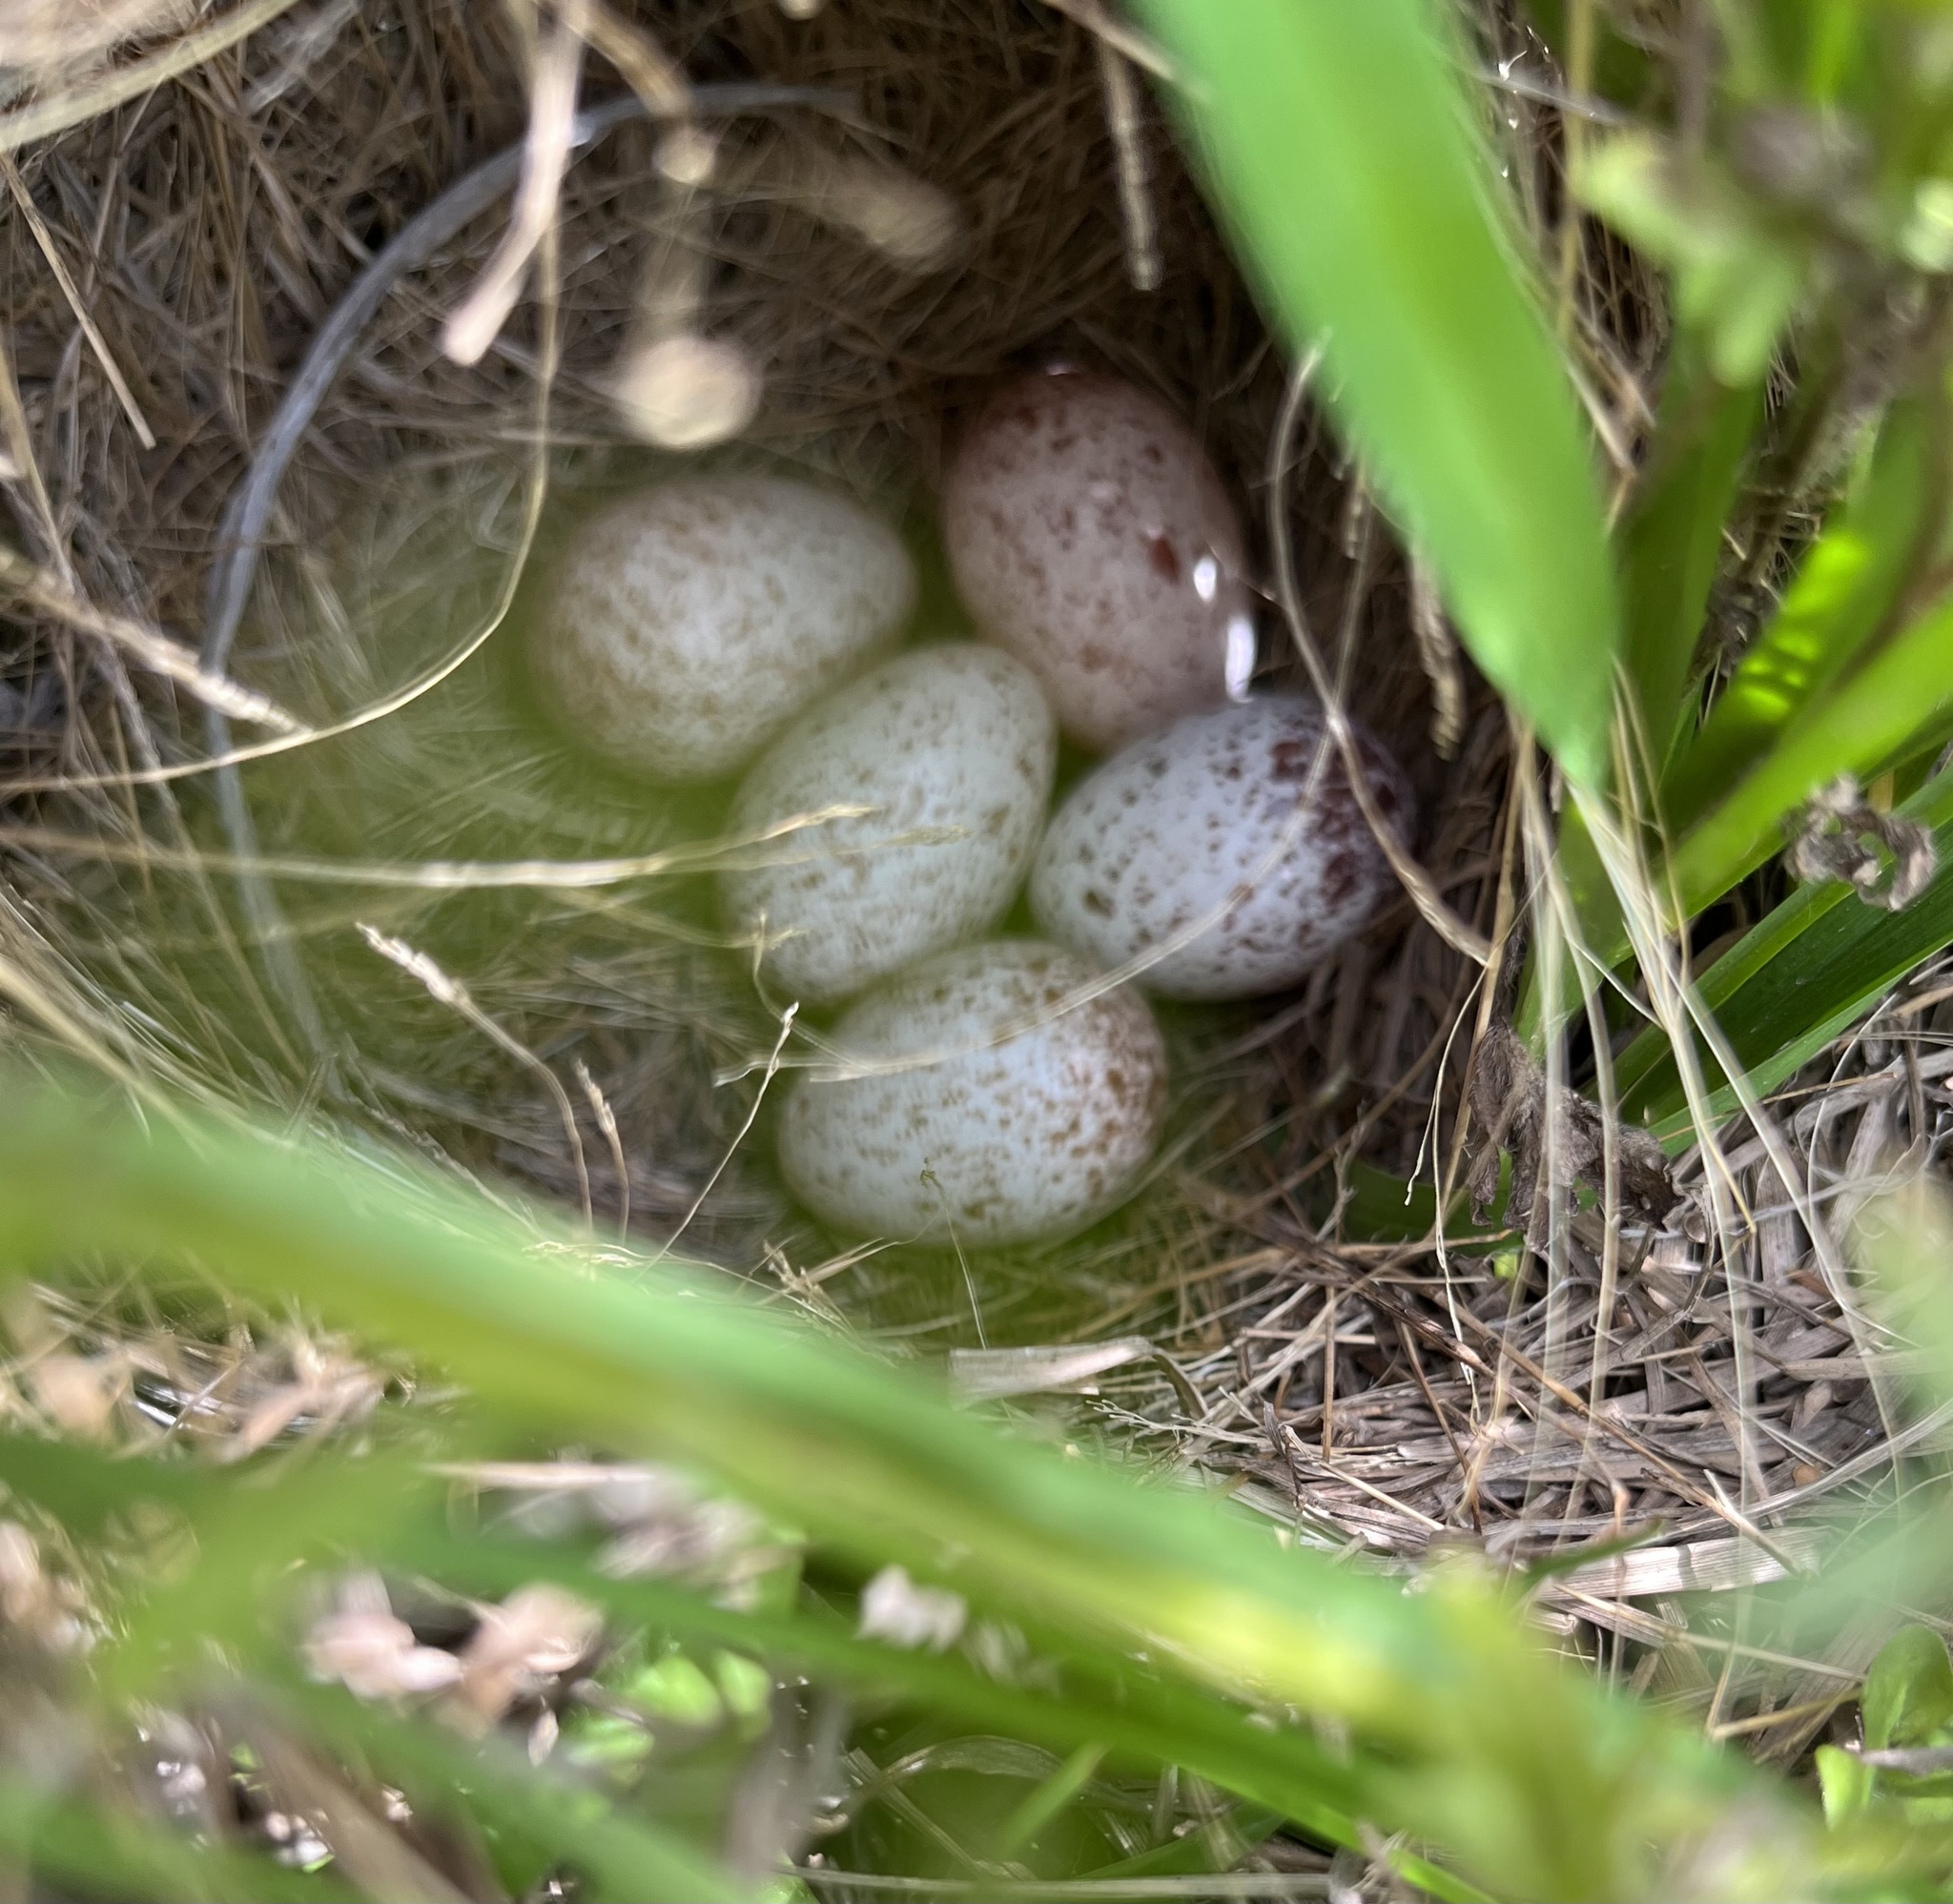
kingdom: Animalia
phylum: Chordata
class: Aves
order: Passeriformes
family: Icteridae
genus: Sturnella
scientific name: Sturnella magna
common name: Eastern meadowlark
